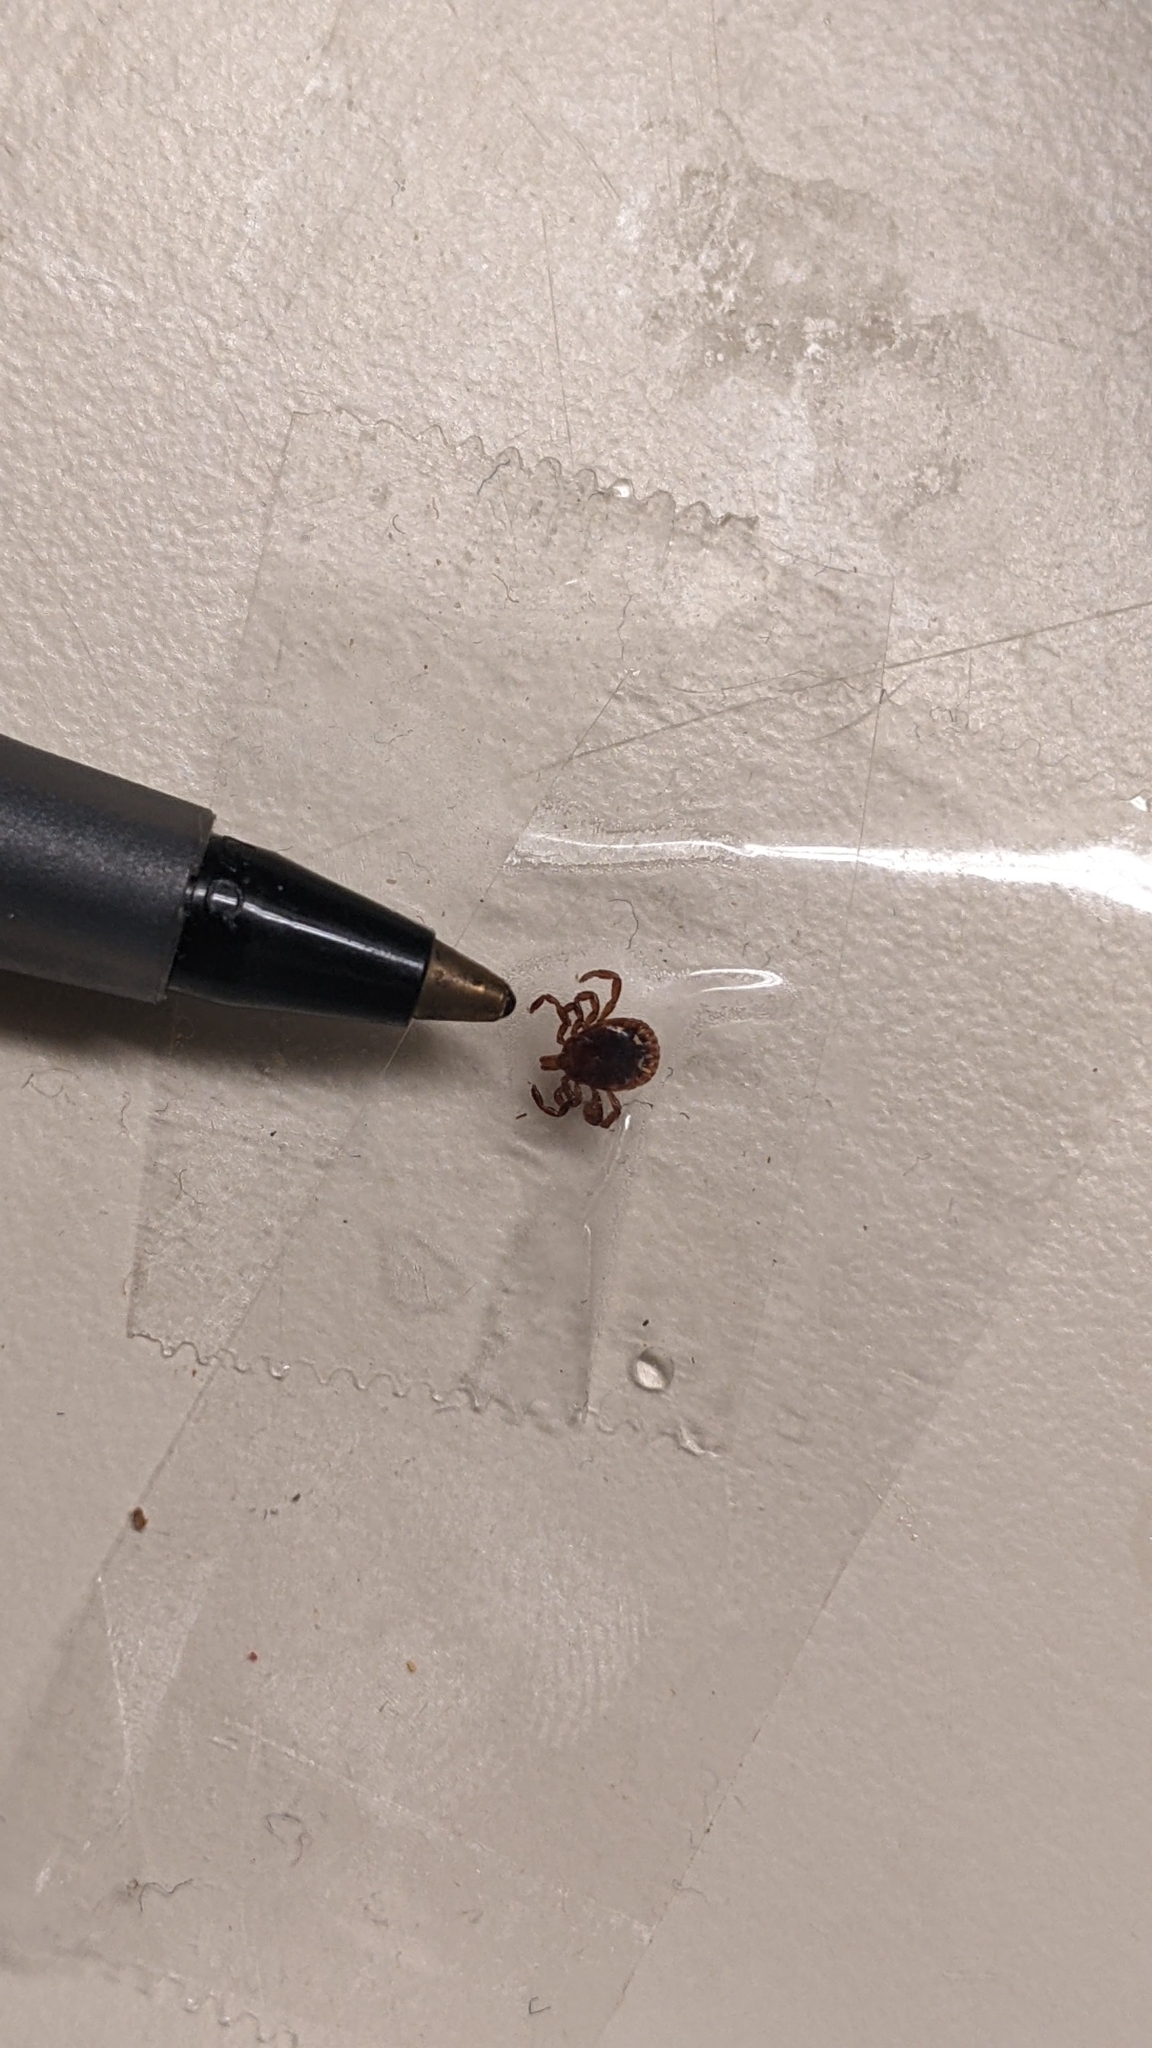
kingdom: Animalia
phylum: Arthropoda
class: Arachnida
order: Ixodida
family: Ixodidae
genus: Amblyomma
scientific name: Amblyomma americanum
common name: Lone star tick
